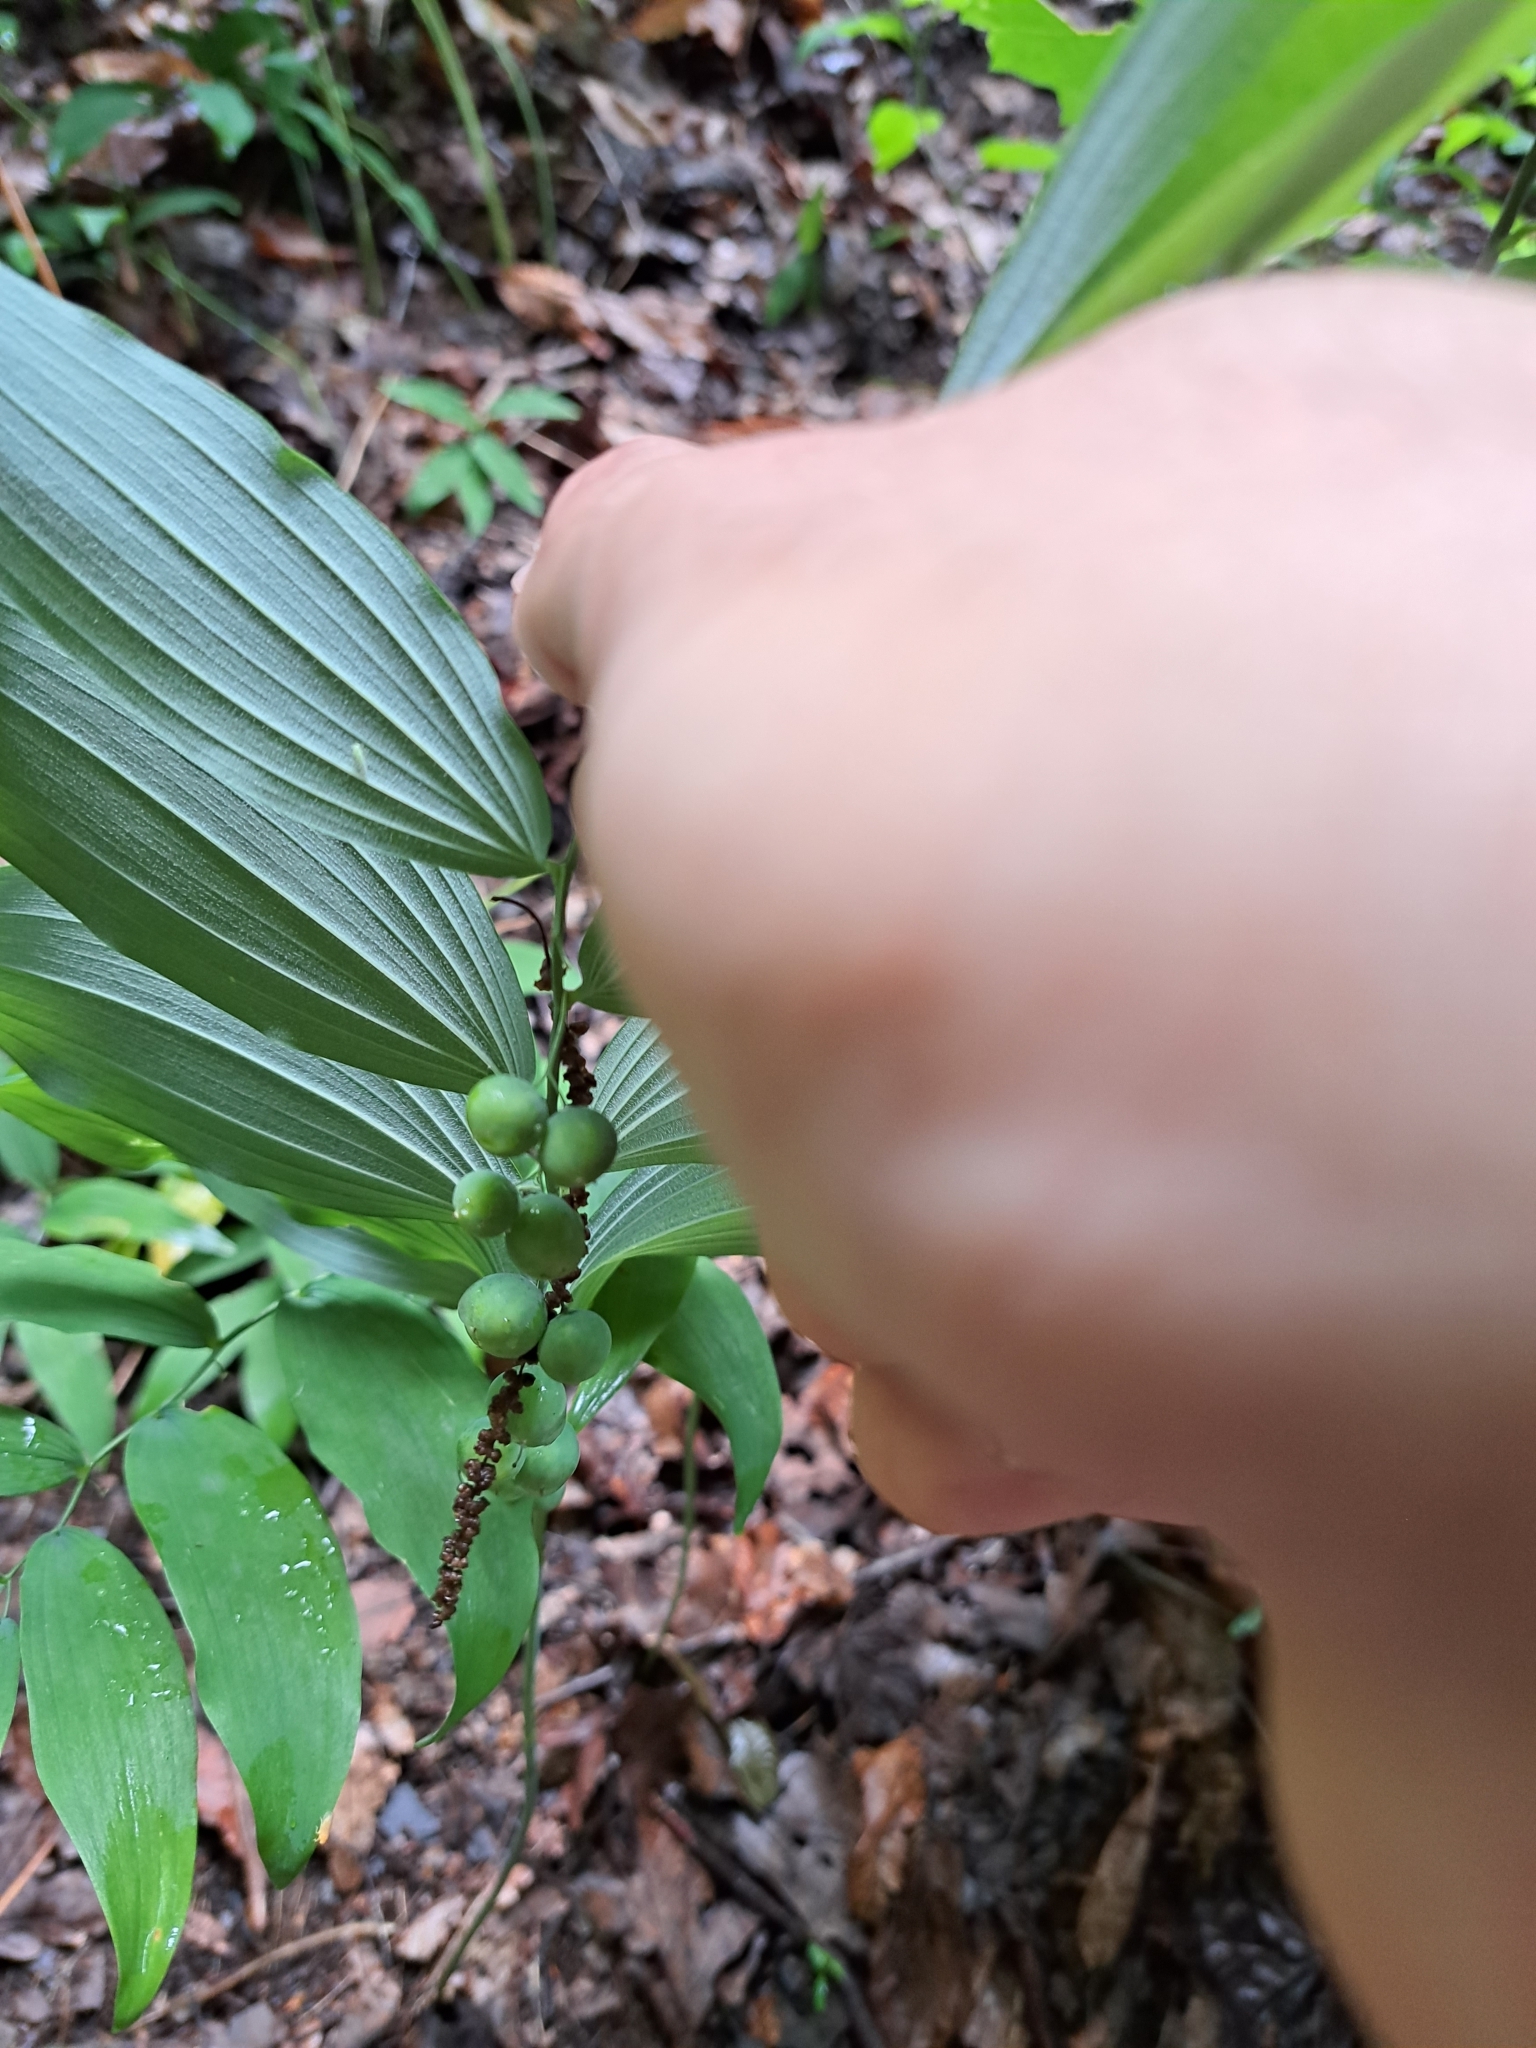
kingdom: Plantae
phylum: Tracheophyta
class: Liliopsida
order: Asparagales
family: Asparagaceae
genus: Polygonatum
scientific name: Polygonatum pubescens
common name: Downy solomon's seal
